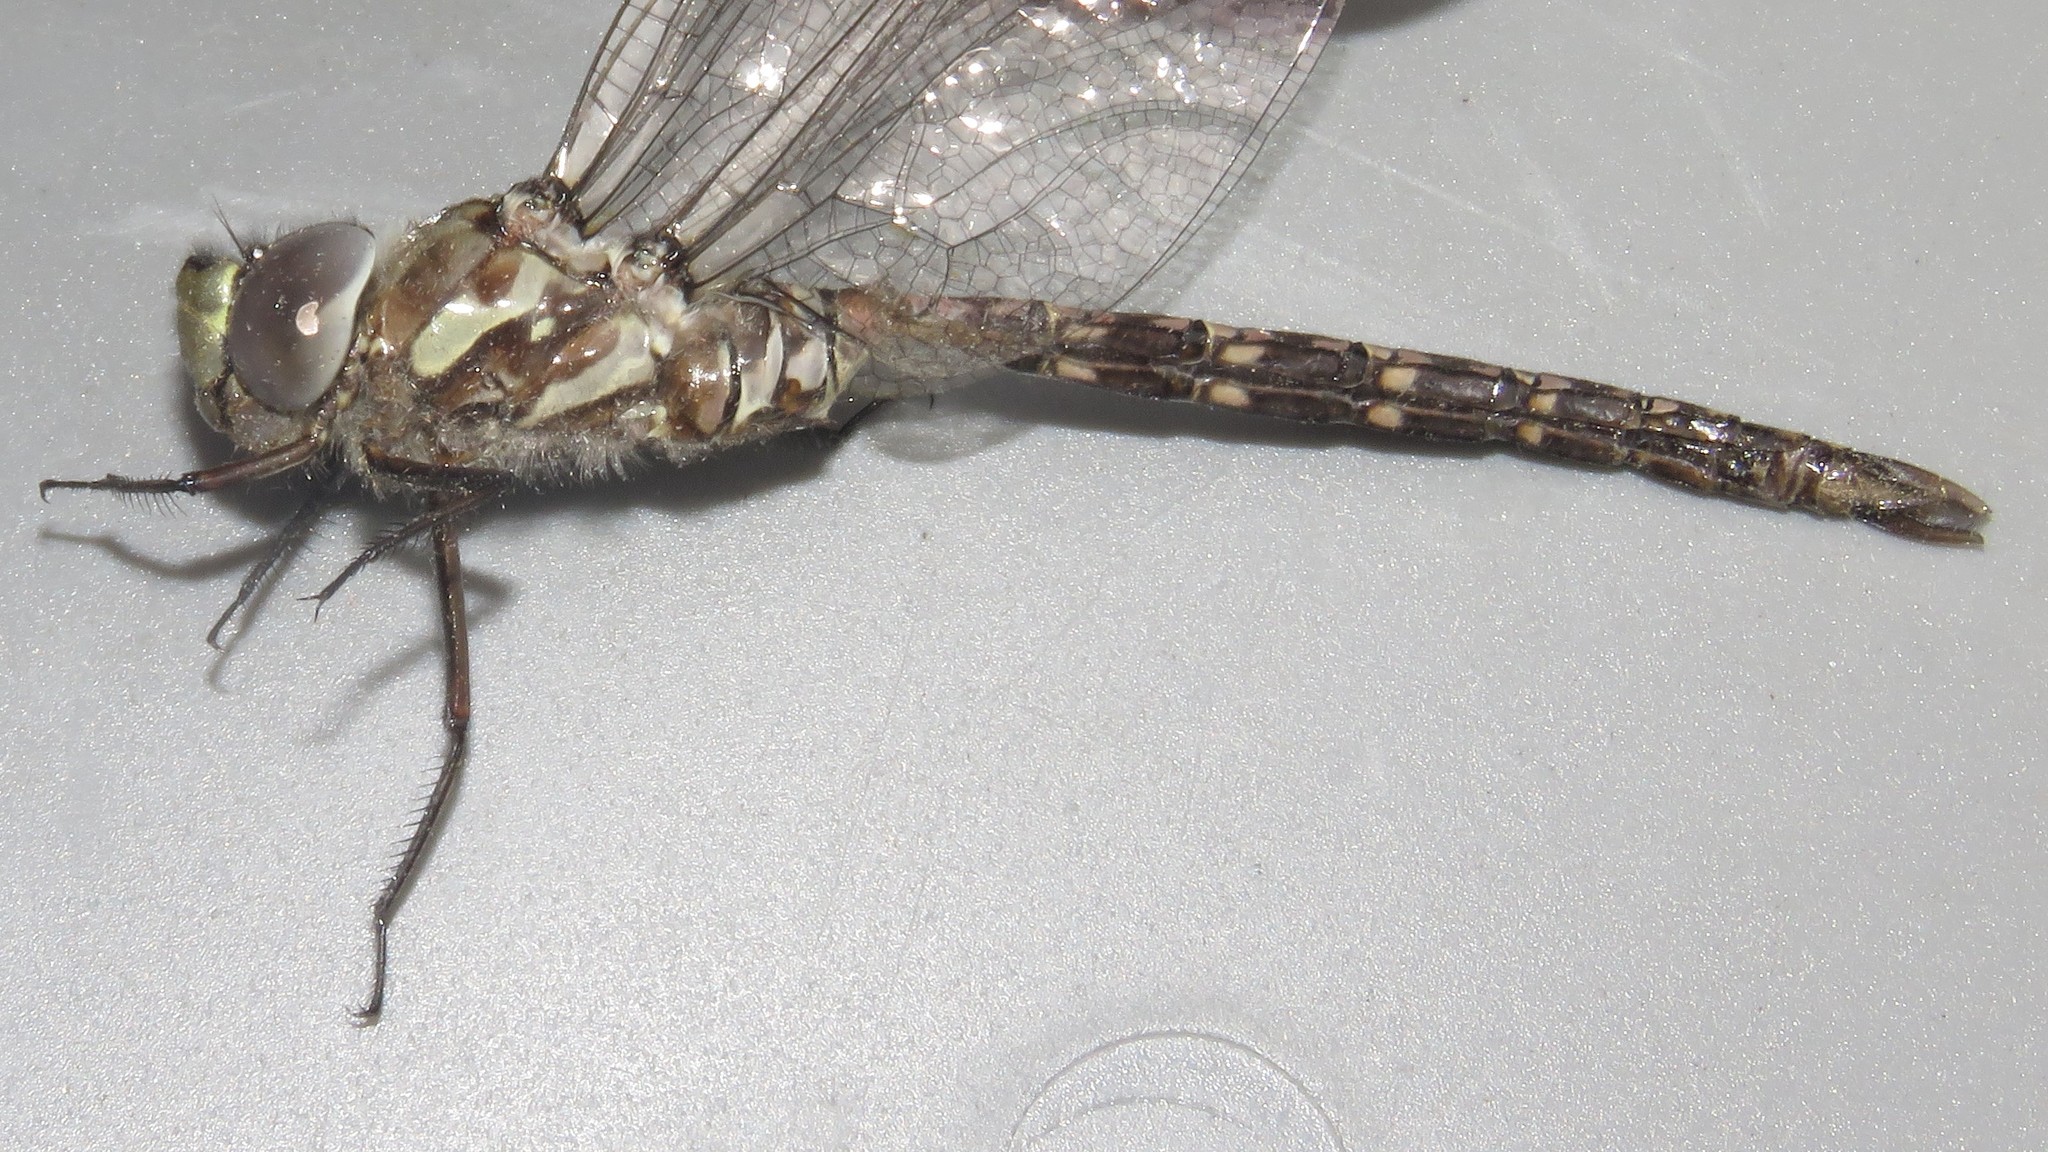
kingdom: Animalia
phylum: Arthropoda
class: Insecta
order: Odonata
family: Aeshnidae
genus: Aeshna
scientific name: Aeshna canadensis
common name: Canada darner
